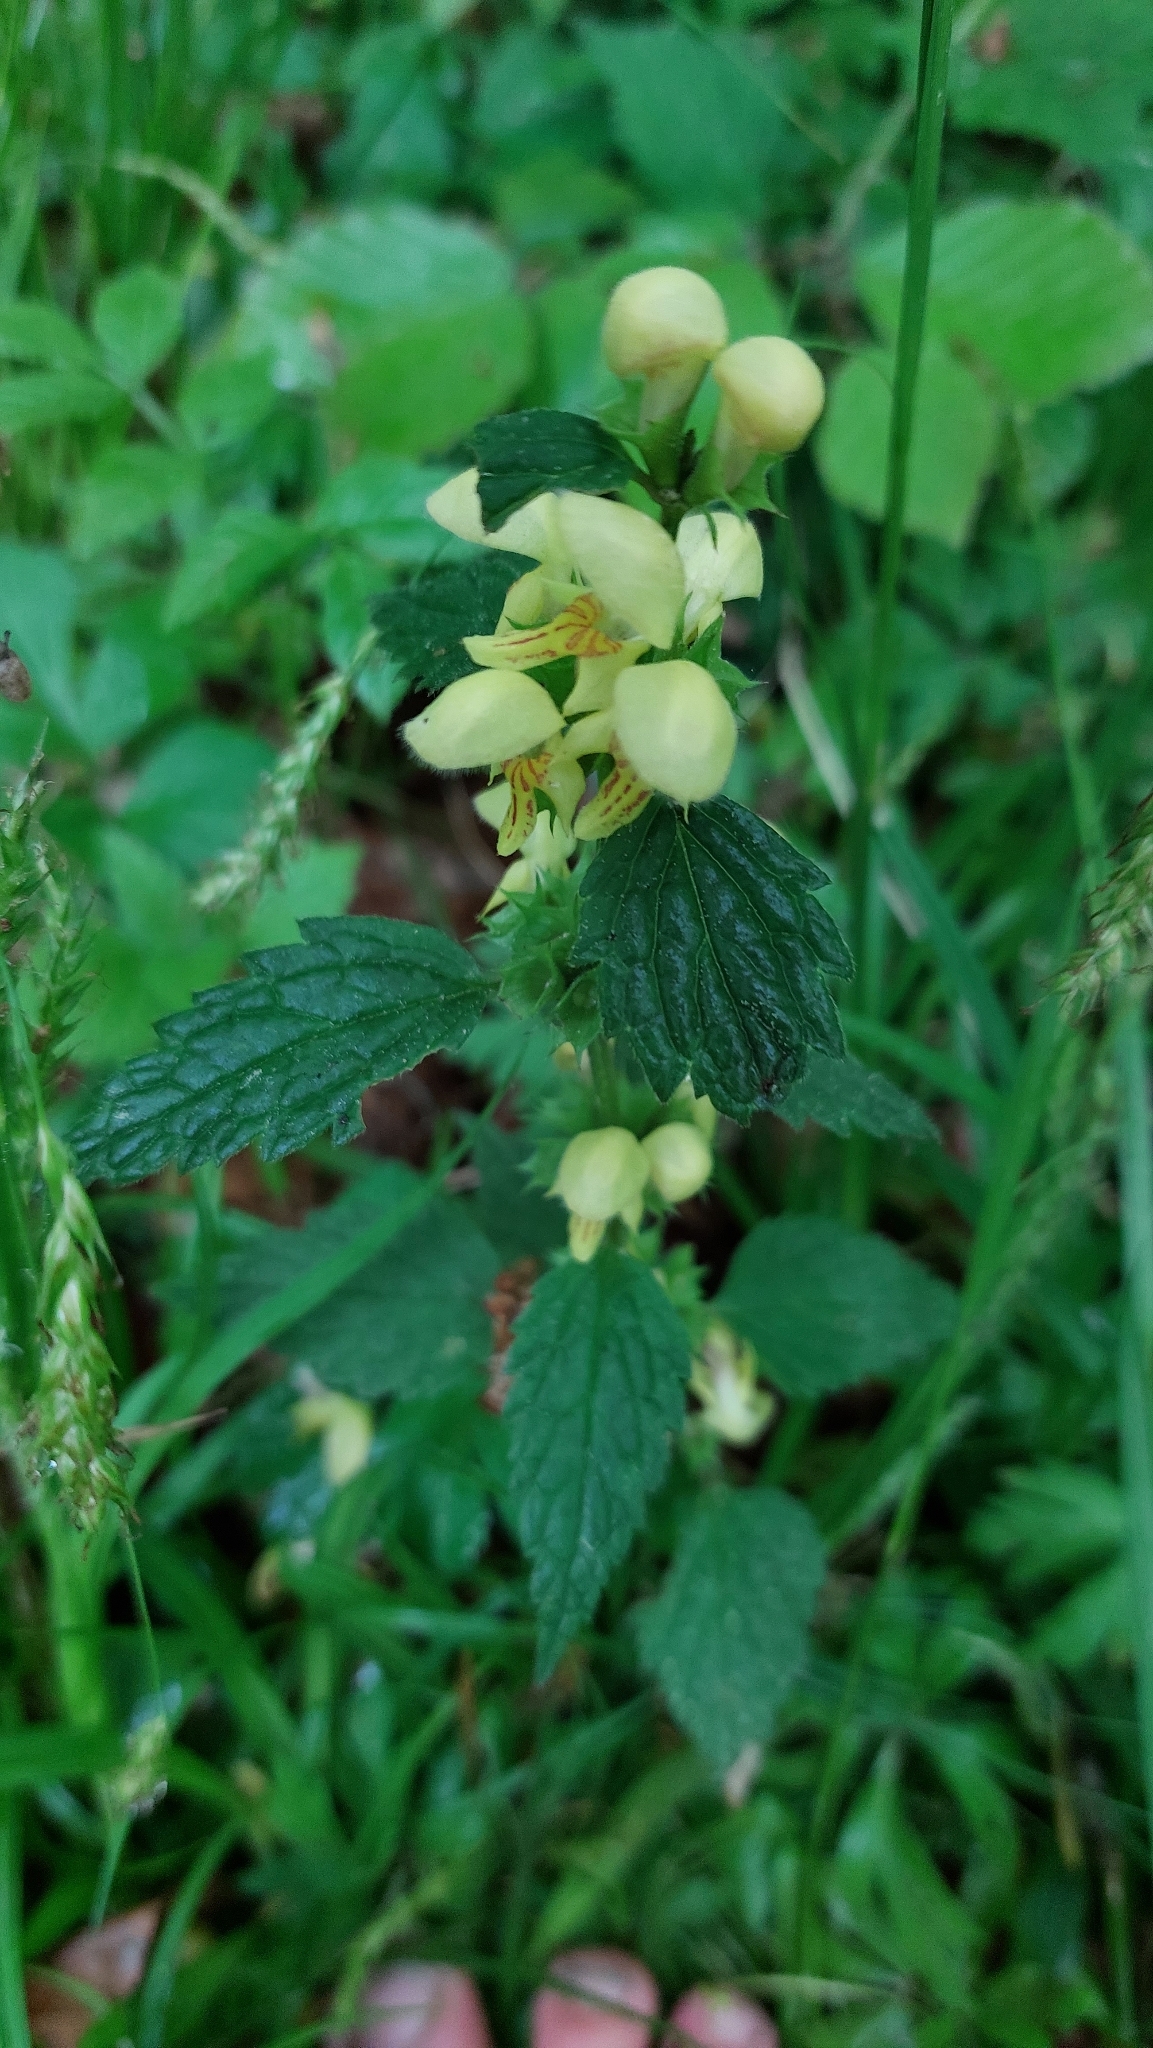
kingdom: Plantae
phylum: Tracheophyta
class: Magnoliopsida
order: Lamiales
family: Lamiaceae
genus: Lamium
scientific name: Lamium galeobdolon
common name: Yellow archangel
